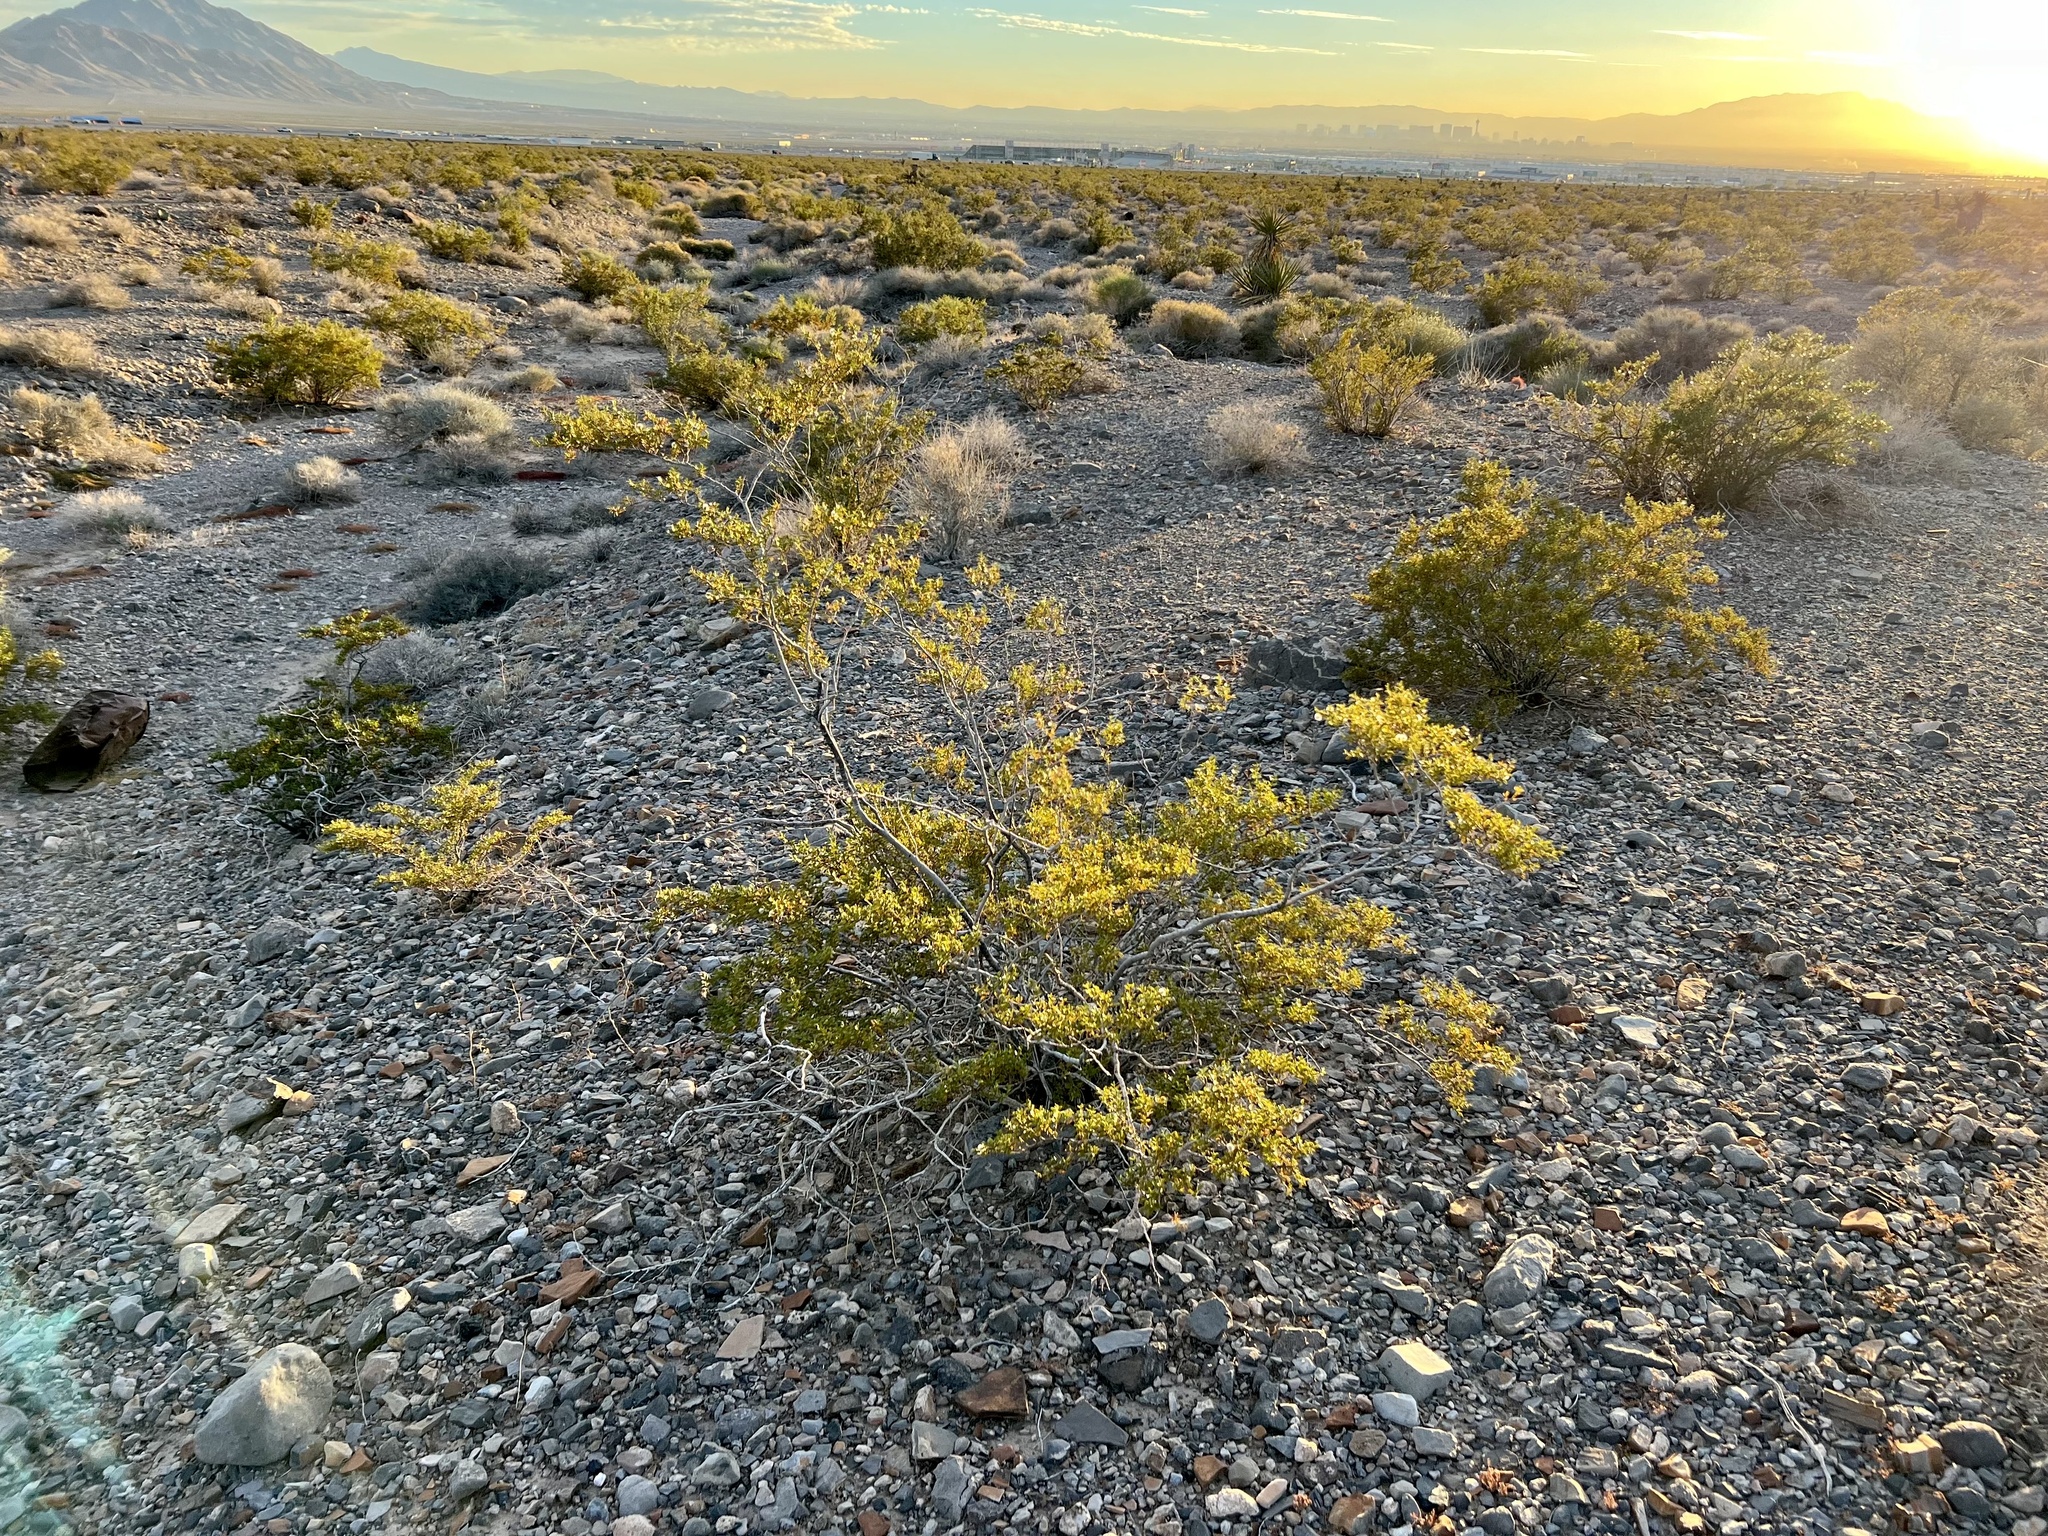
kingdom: Plantae
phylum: Tracheophyta
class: Magnoliopsida
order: Zygophyllales
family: Zygophyllaceae
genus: Larrea
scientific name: Larrea tridentata
